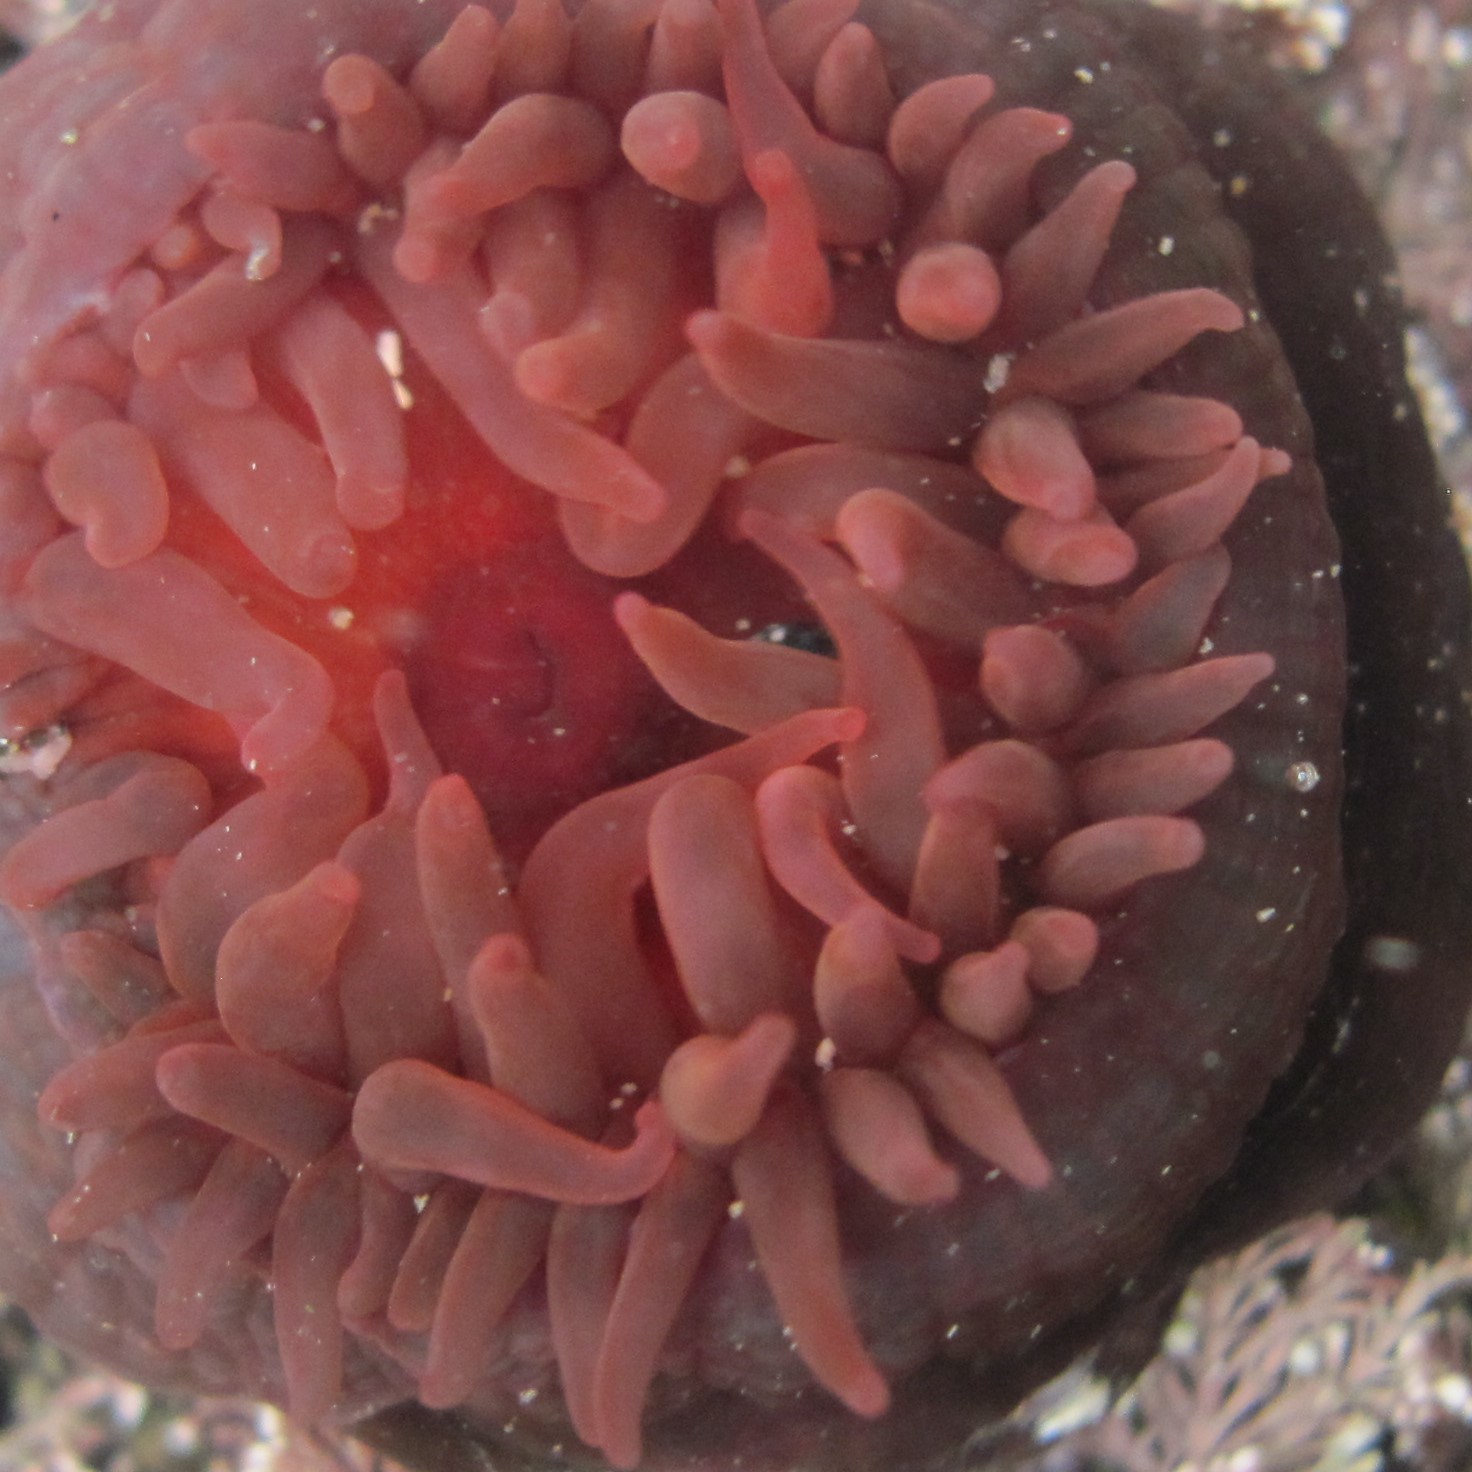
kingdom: Animalia
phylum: Cnidaria
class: Anthozoa
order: Actiniaria
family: Actiniidae
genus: Actinia
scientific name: Actinia tenebrosa
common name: Waratah anemone
